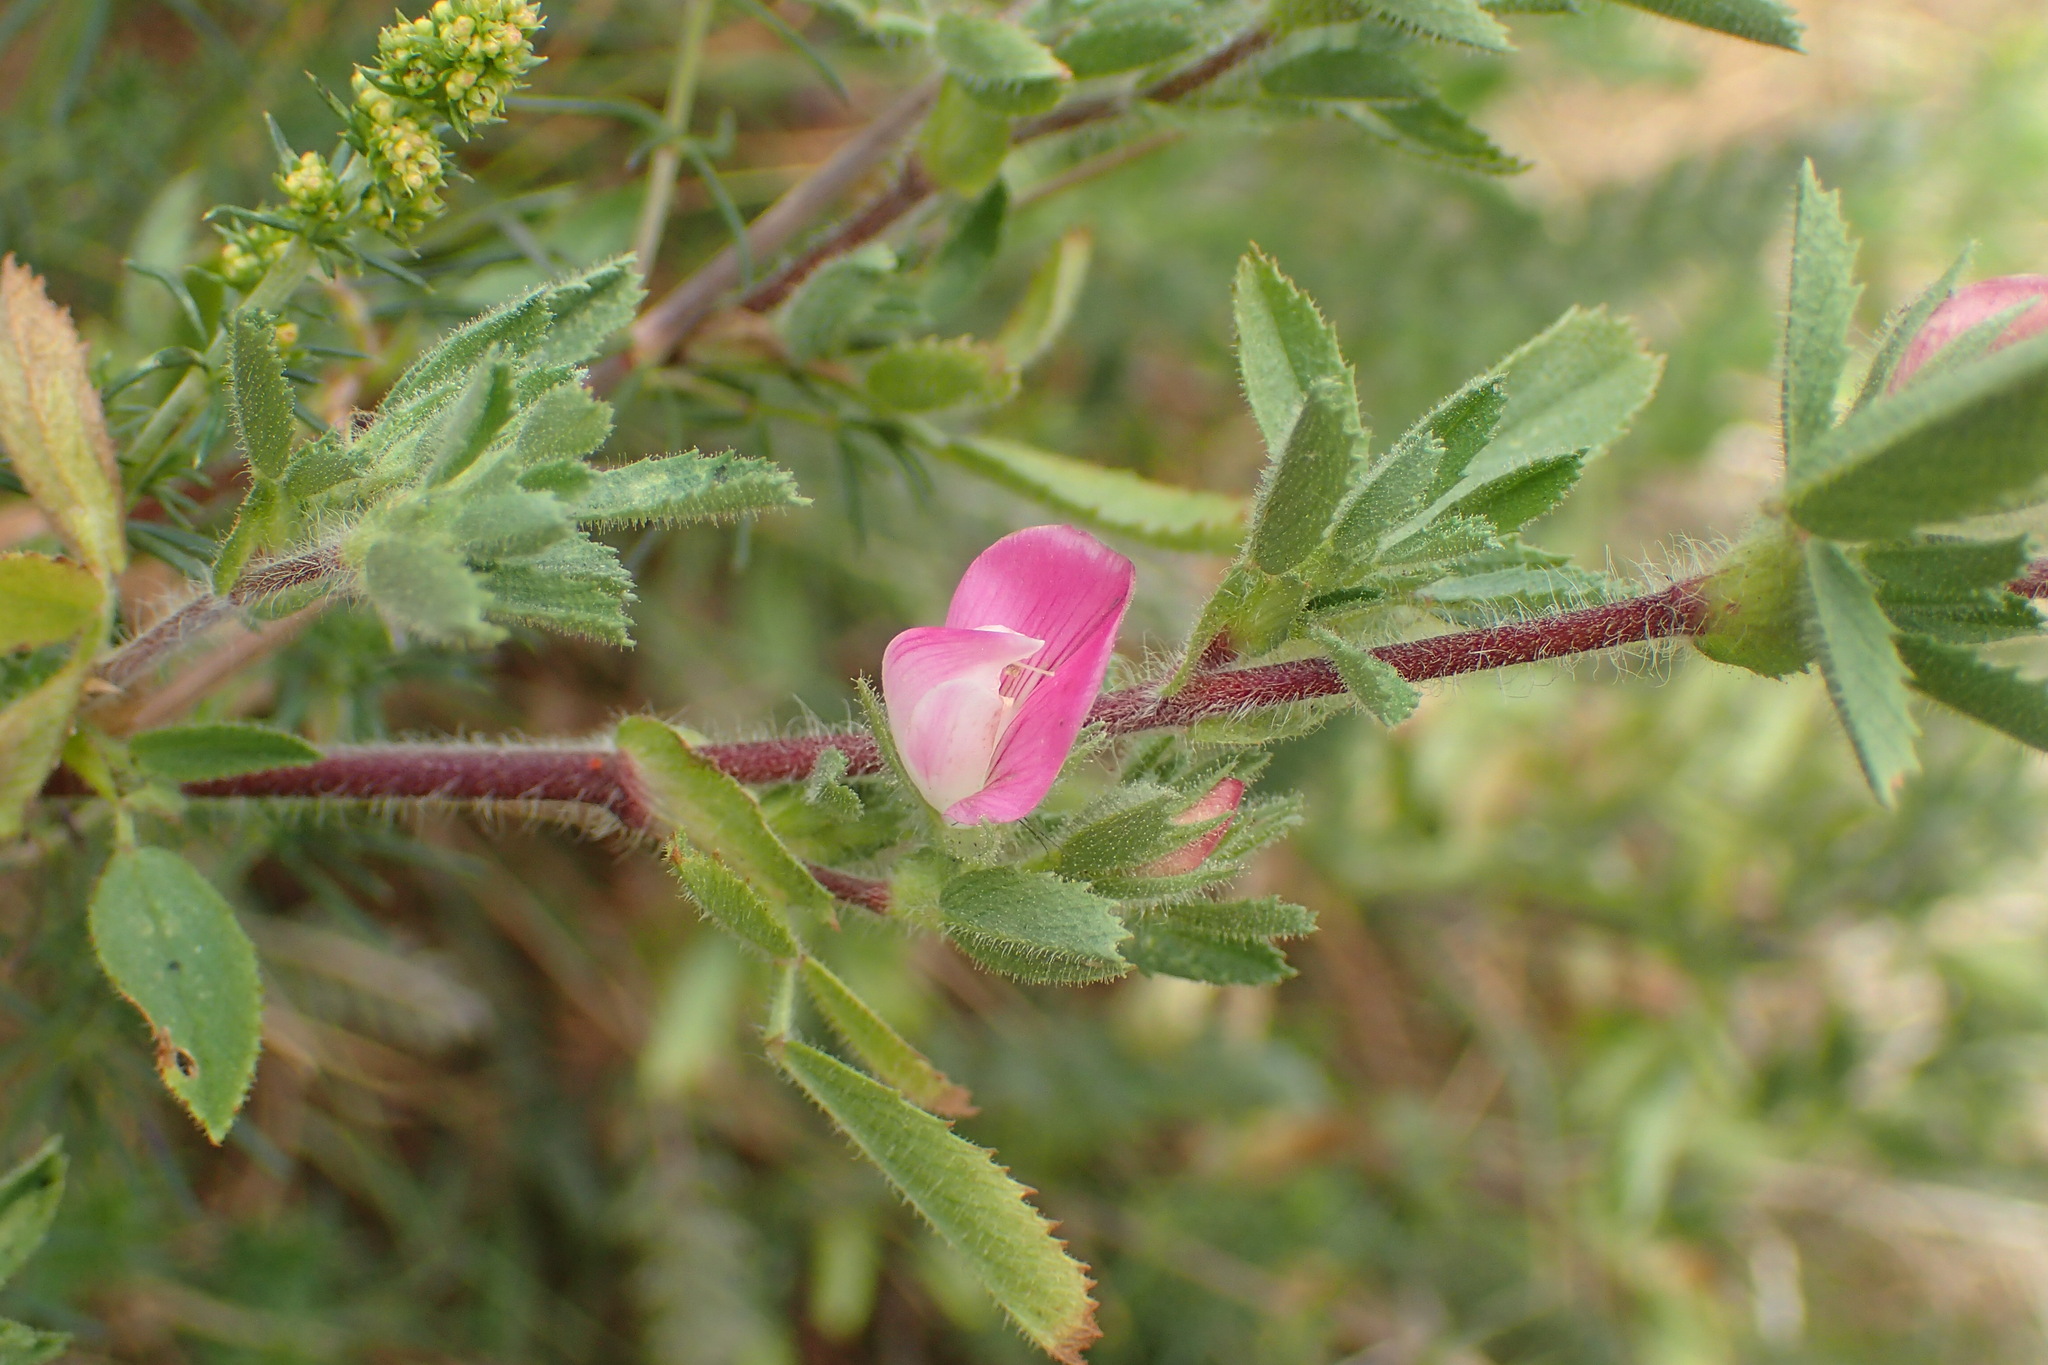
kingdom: Plantae
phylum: Tracheophyta
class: Magnoliopsida
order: Fabales
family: Fabaceae
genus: Ononis
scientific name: Ononis spinosa
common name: Spiny restharrow
